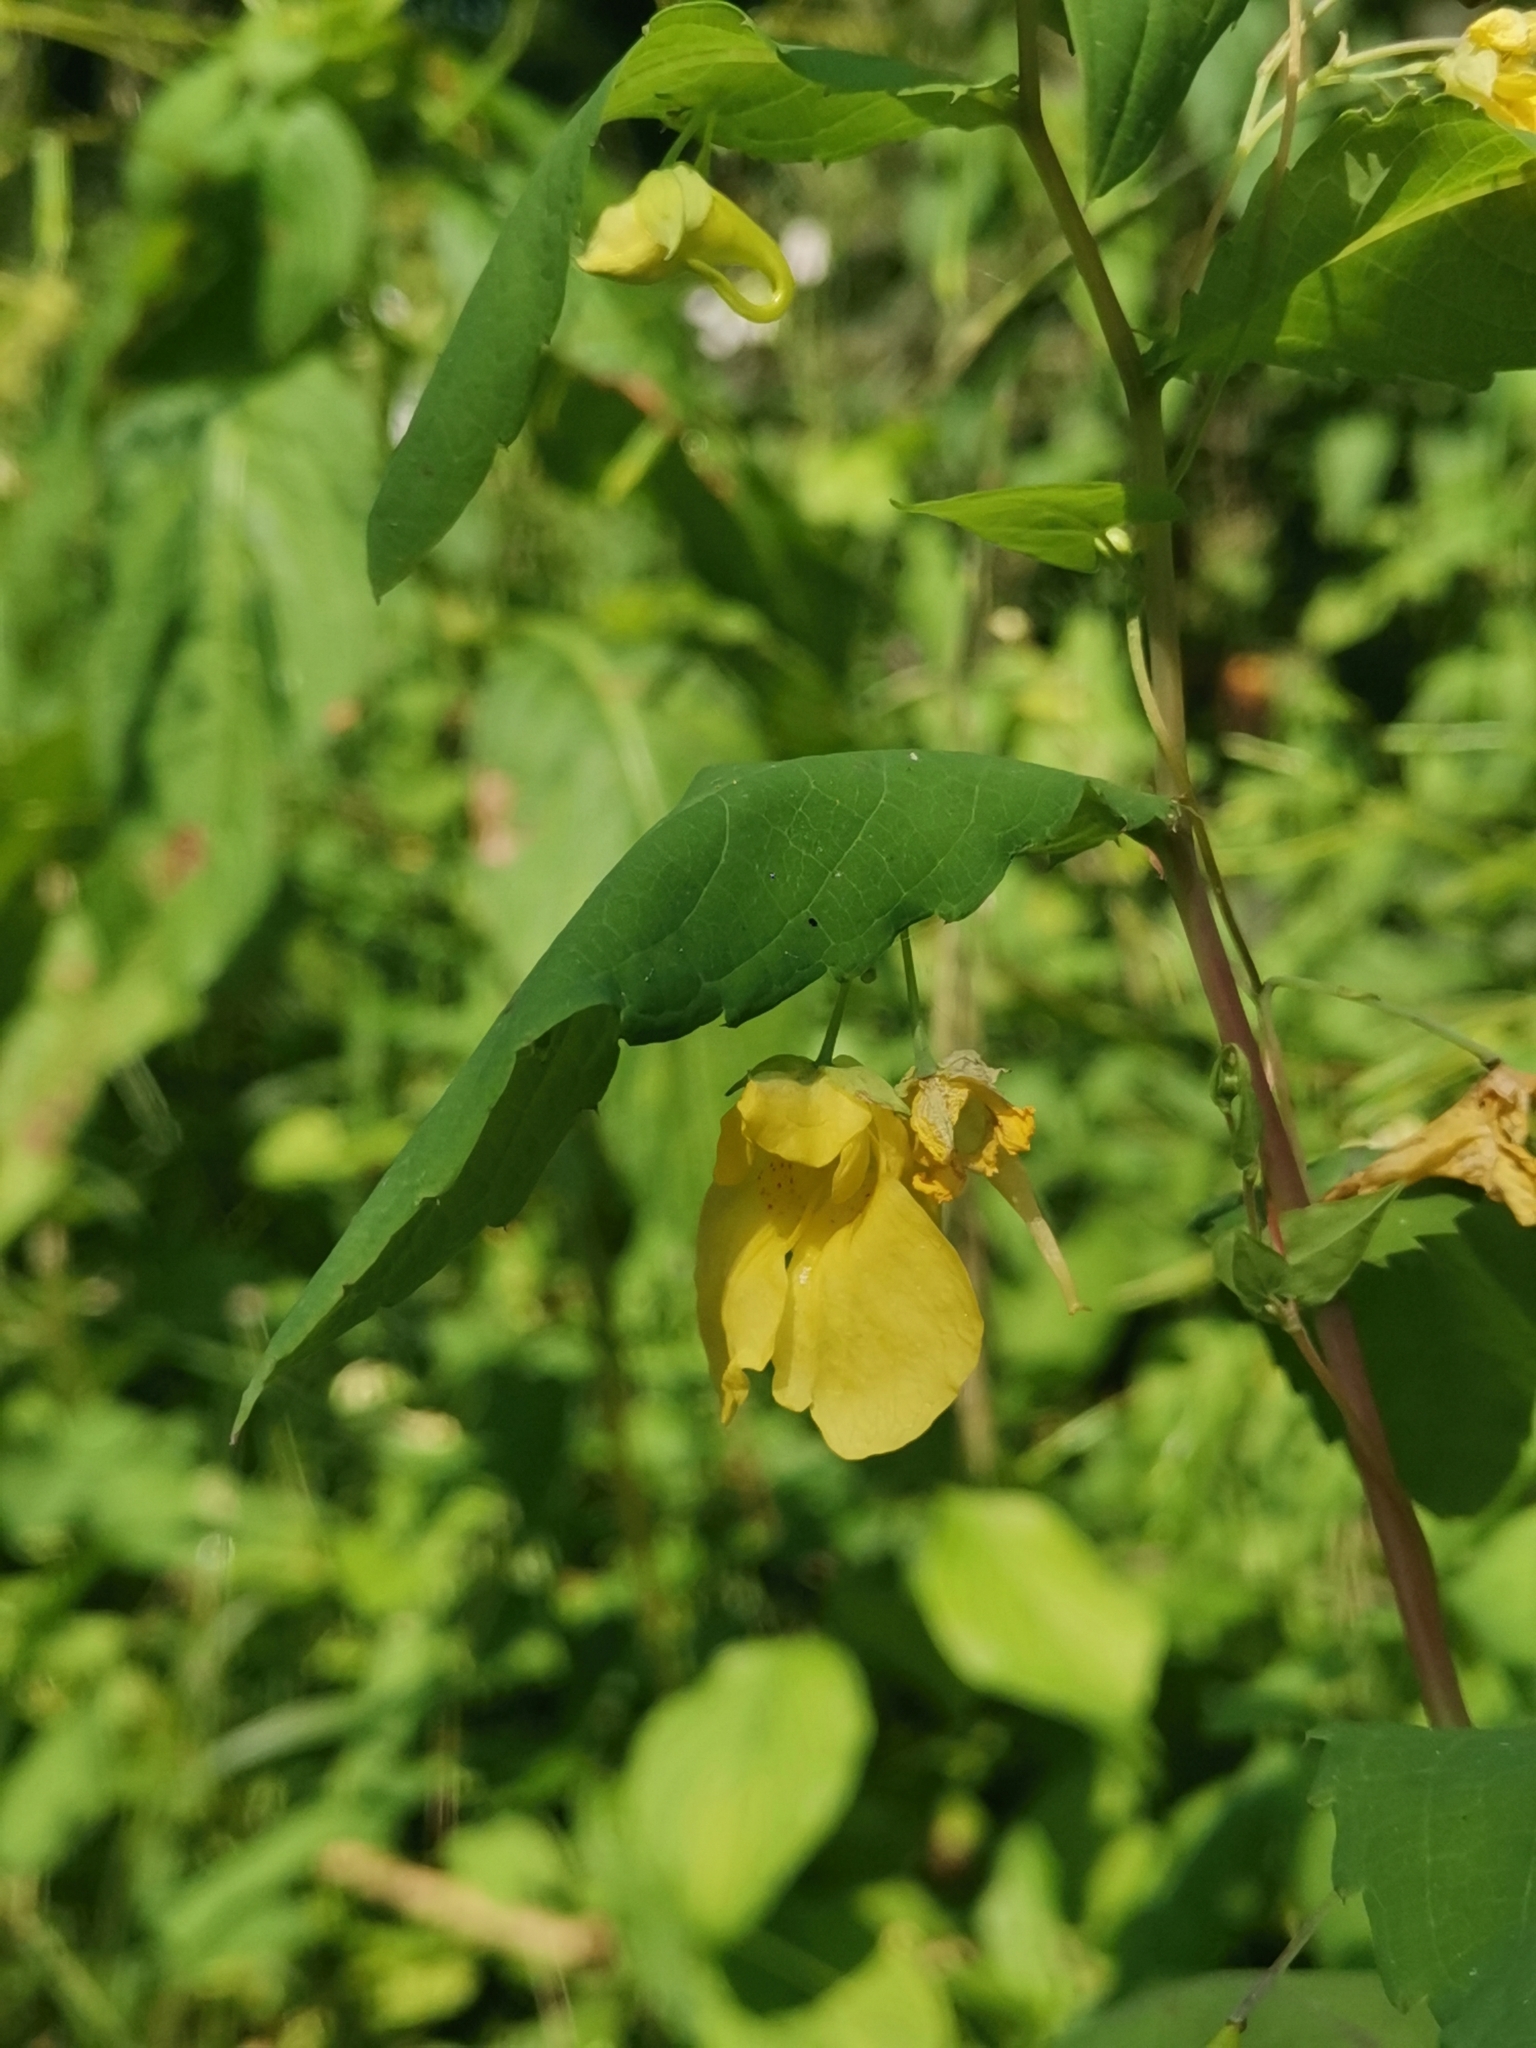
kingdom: Plantae
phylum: Tracheophyta
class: Magnoliopsida
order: Ericales
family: Balsaminaceae
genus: Impatiens
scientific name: Impatiens noli-tangere
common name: Touch-me-not balsam
